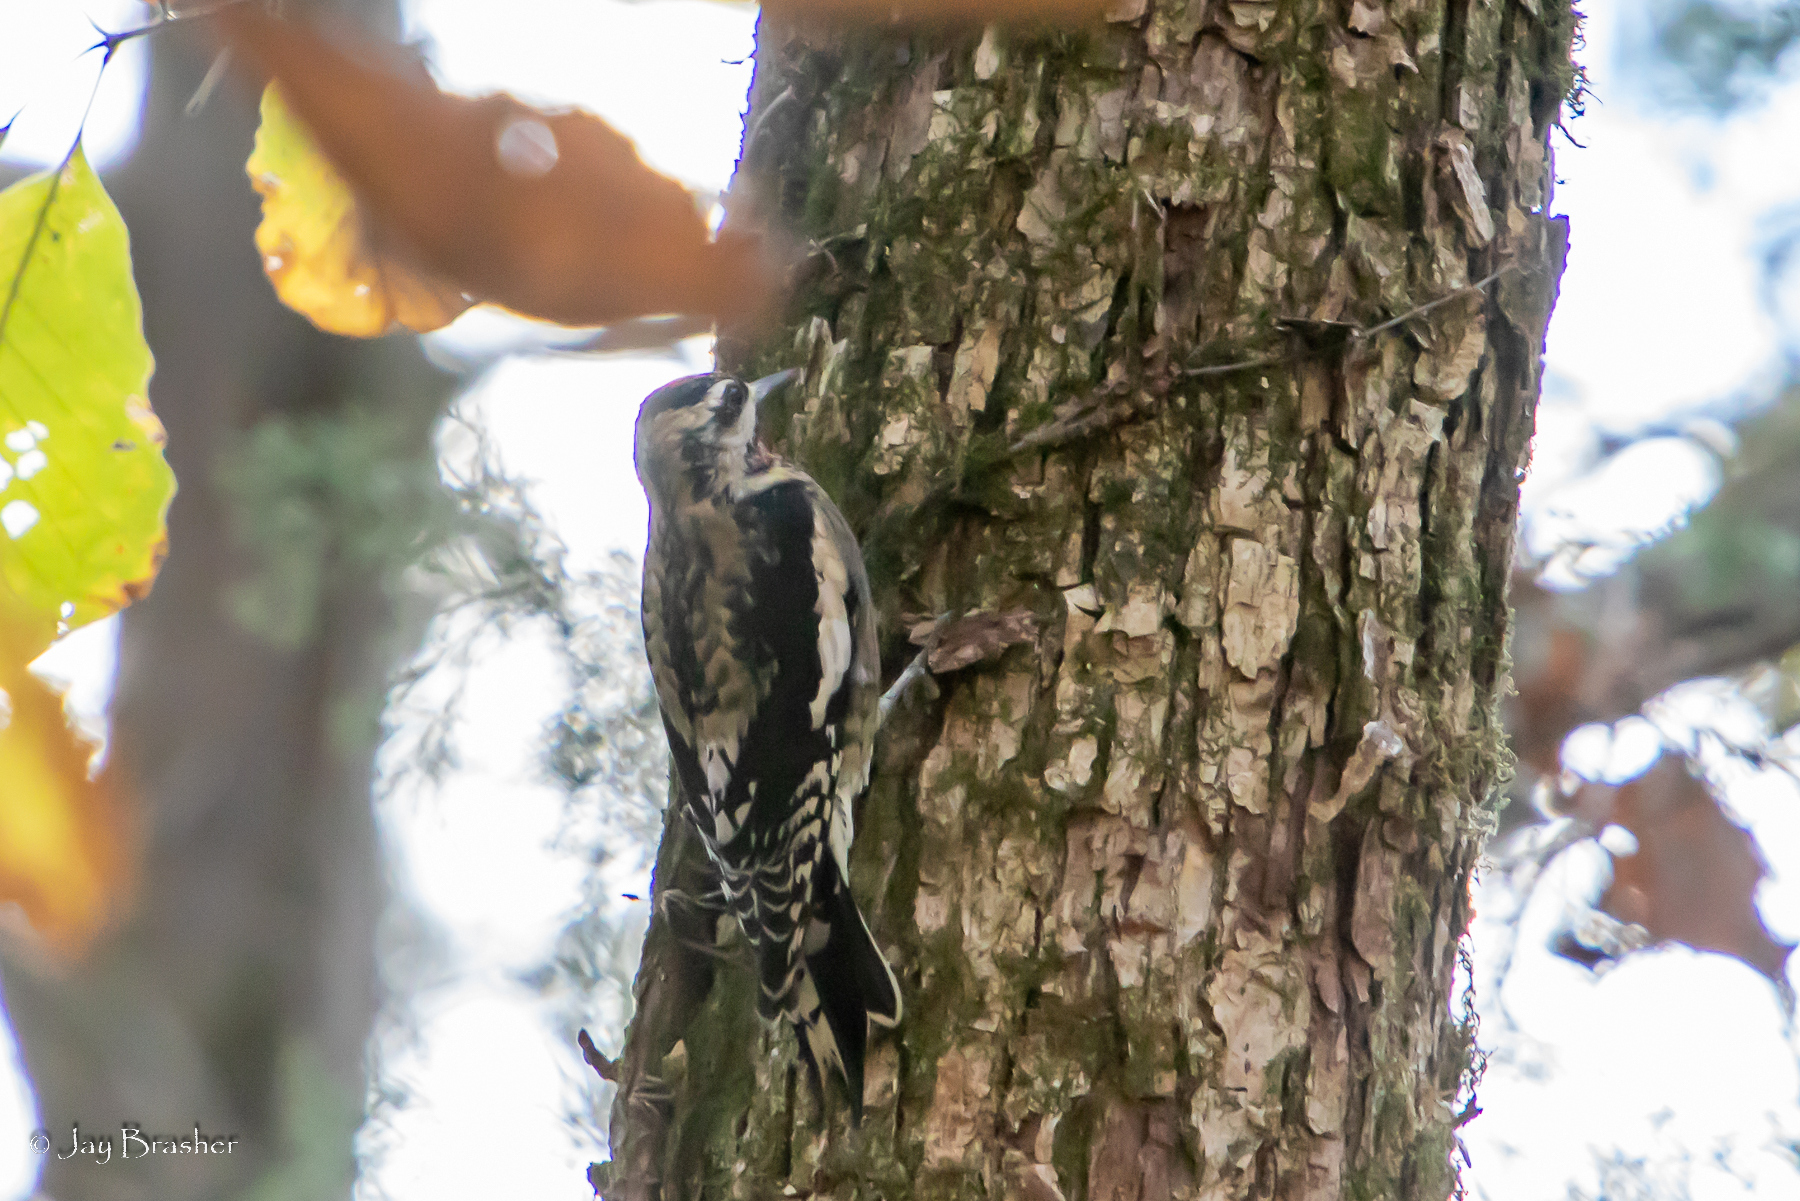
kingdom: Animalia
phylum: Chordata
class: Aves
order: Piciformes
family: Picidae
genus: Sphyrapicus
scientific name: Sphyrapicus varius
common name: Yellow-bellied sapsucker
